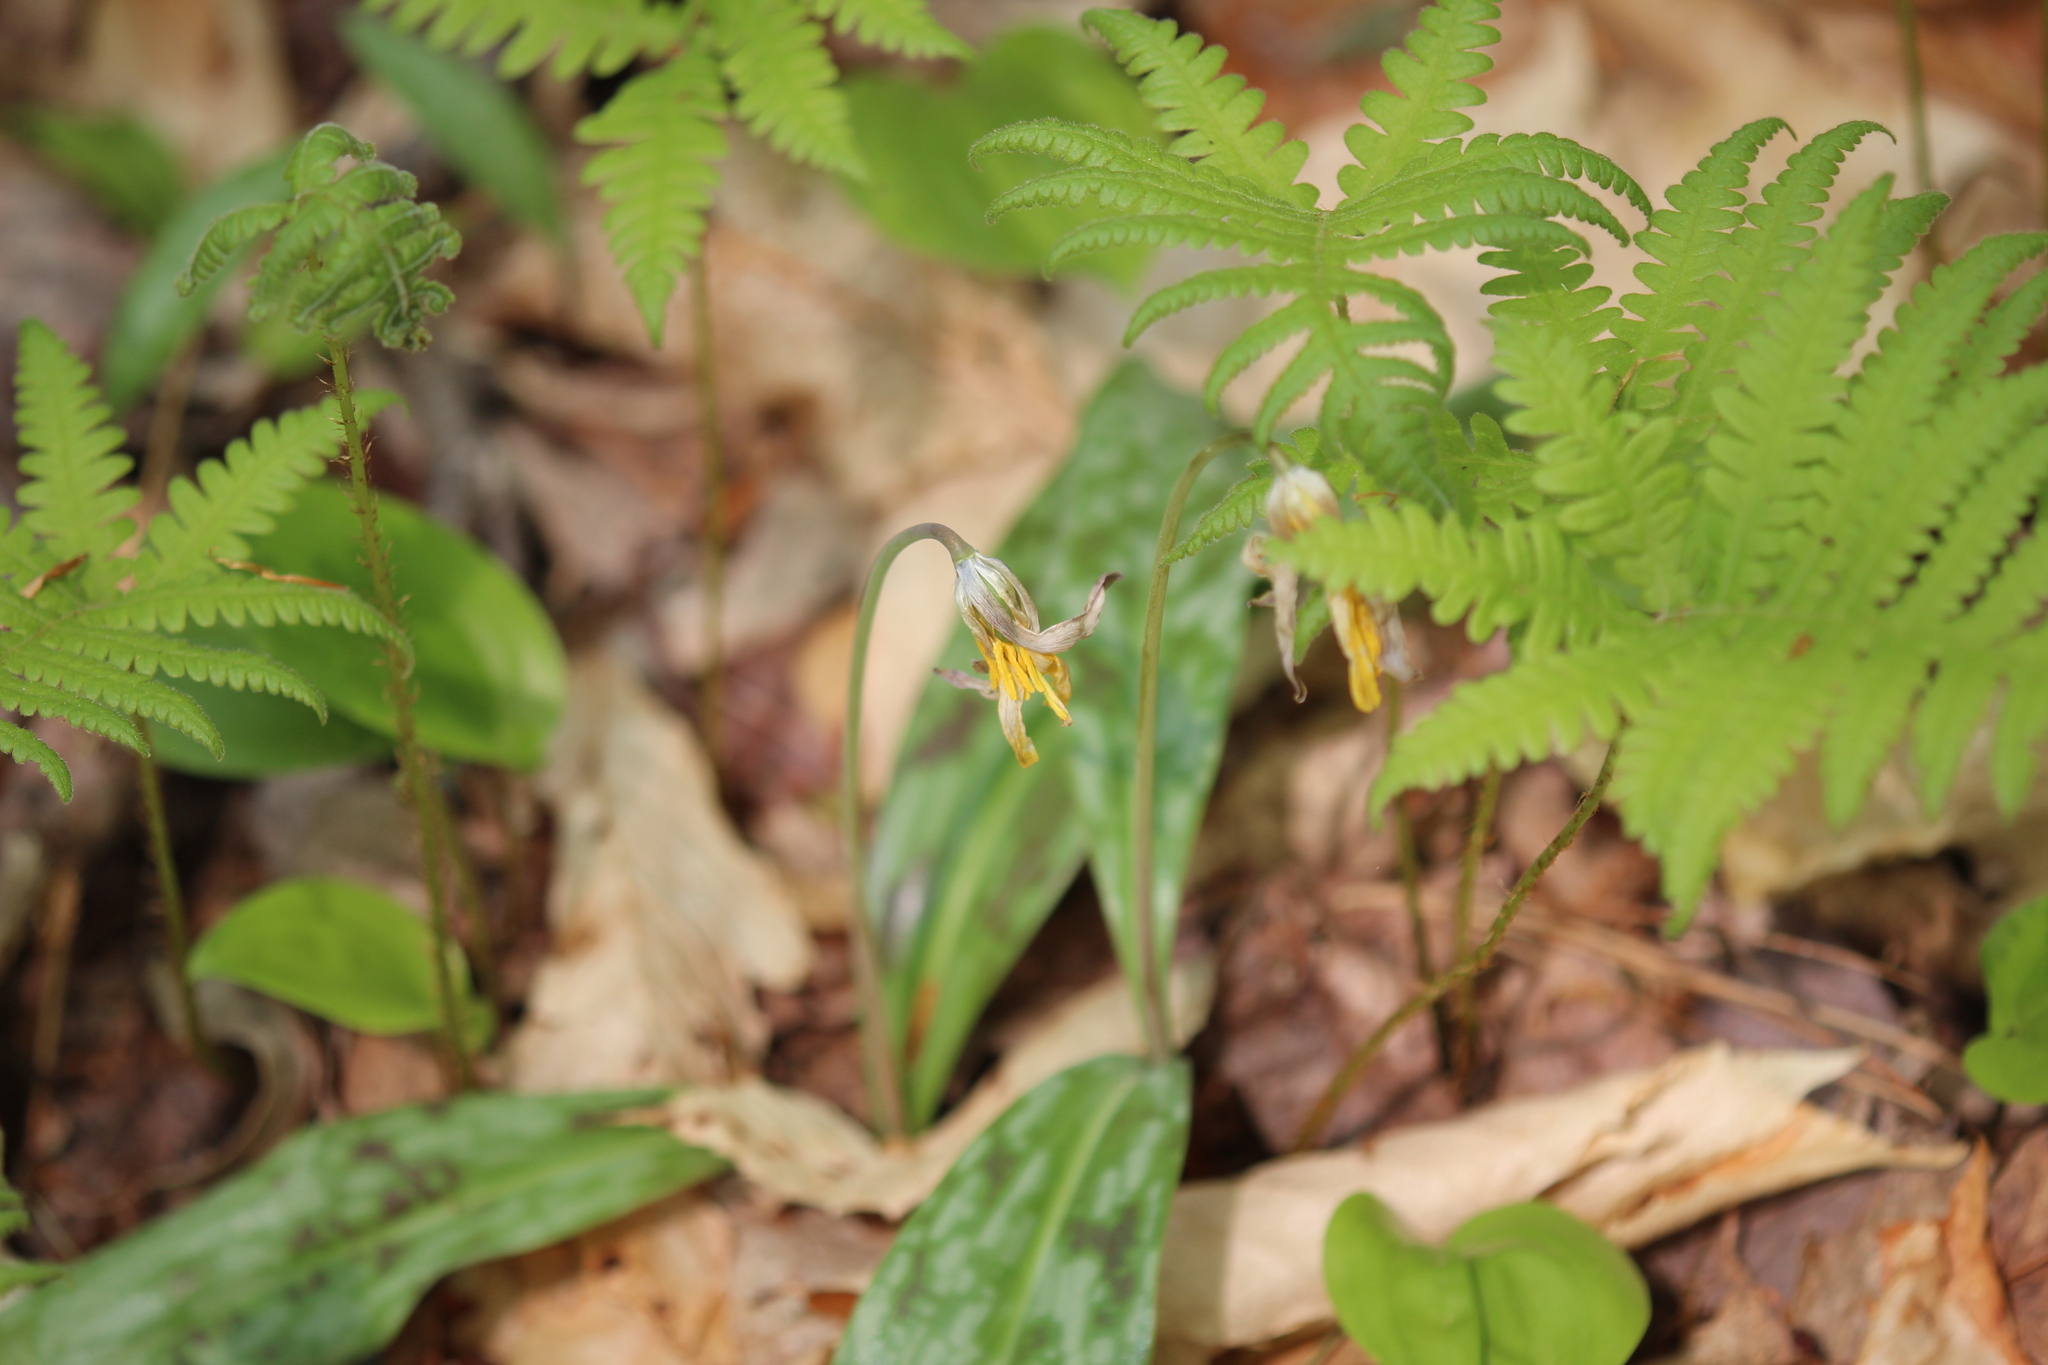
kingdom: Plantae
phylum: Tracheophyta
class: Liliopsida
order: Liliales
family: Liliaceae
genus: Erythronium
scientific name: Erythronium americanum
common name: Yellow adder's-tongue
